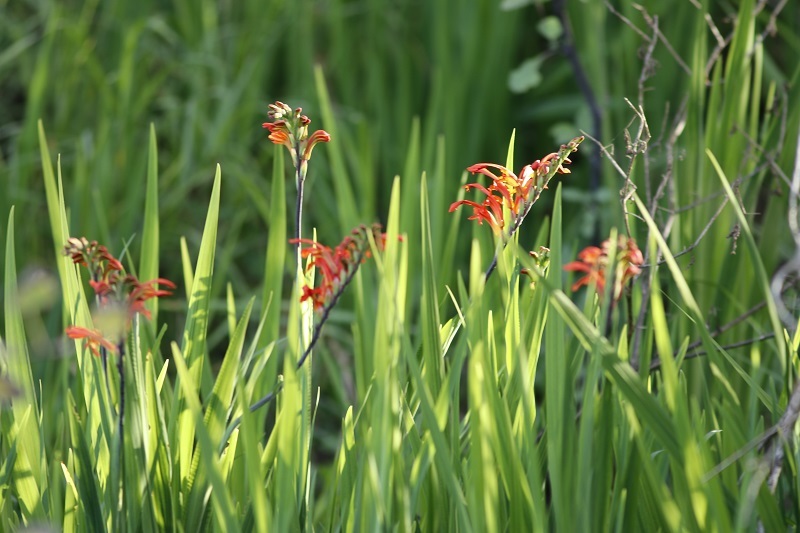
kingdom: Plantae
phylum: Tracheophyta
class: Liliopsida
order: Asparagales
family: Iridaceae
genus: Chasmanthe
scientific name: Chasmanthe aethiopica
